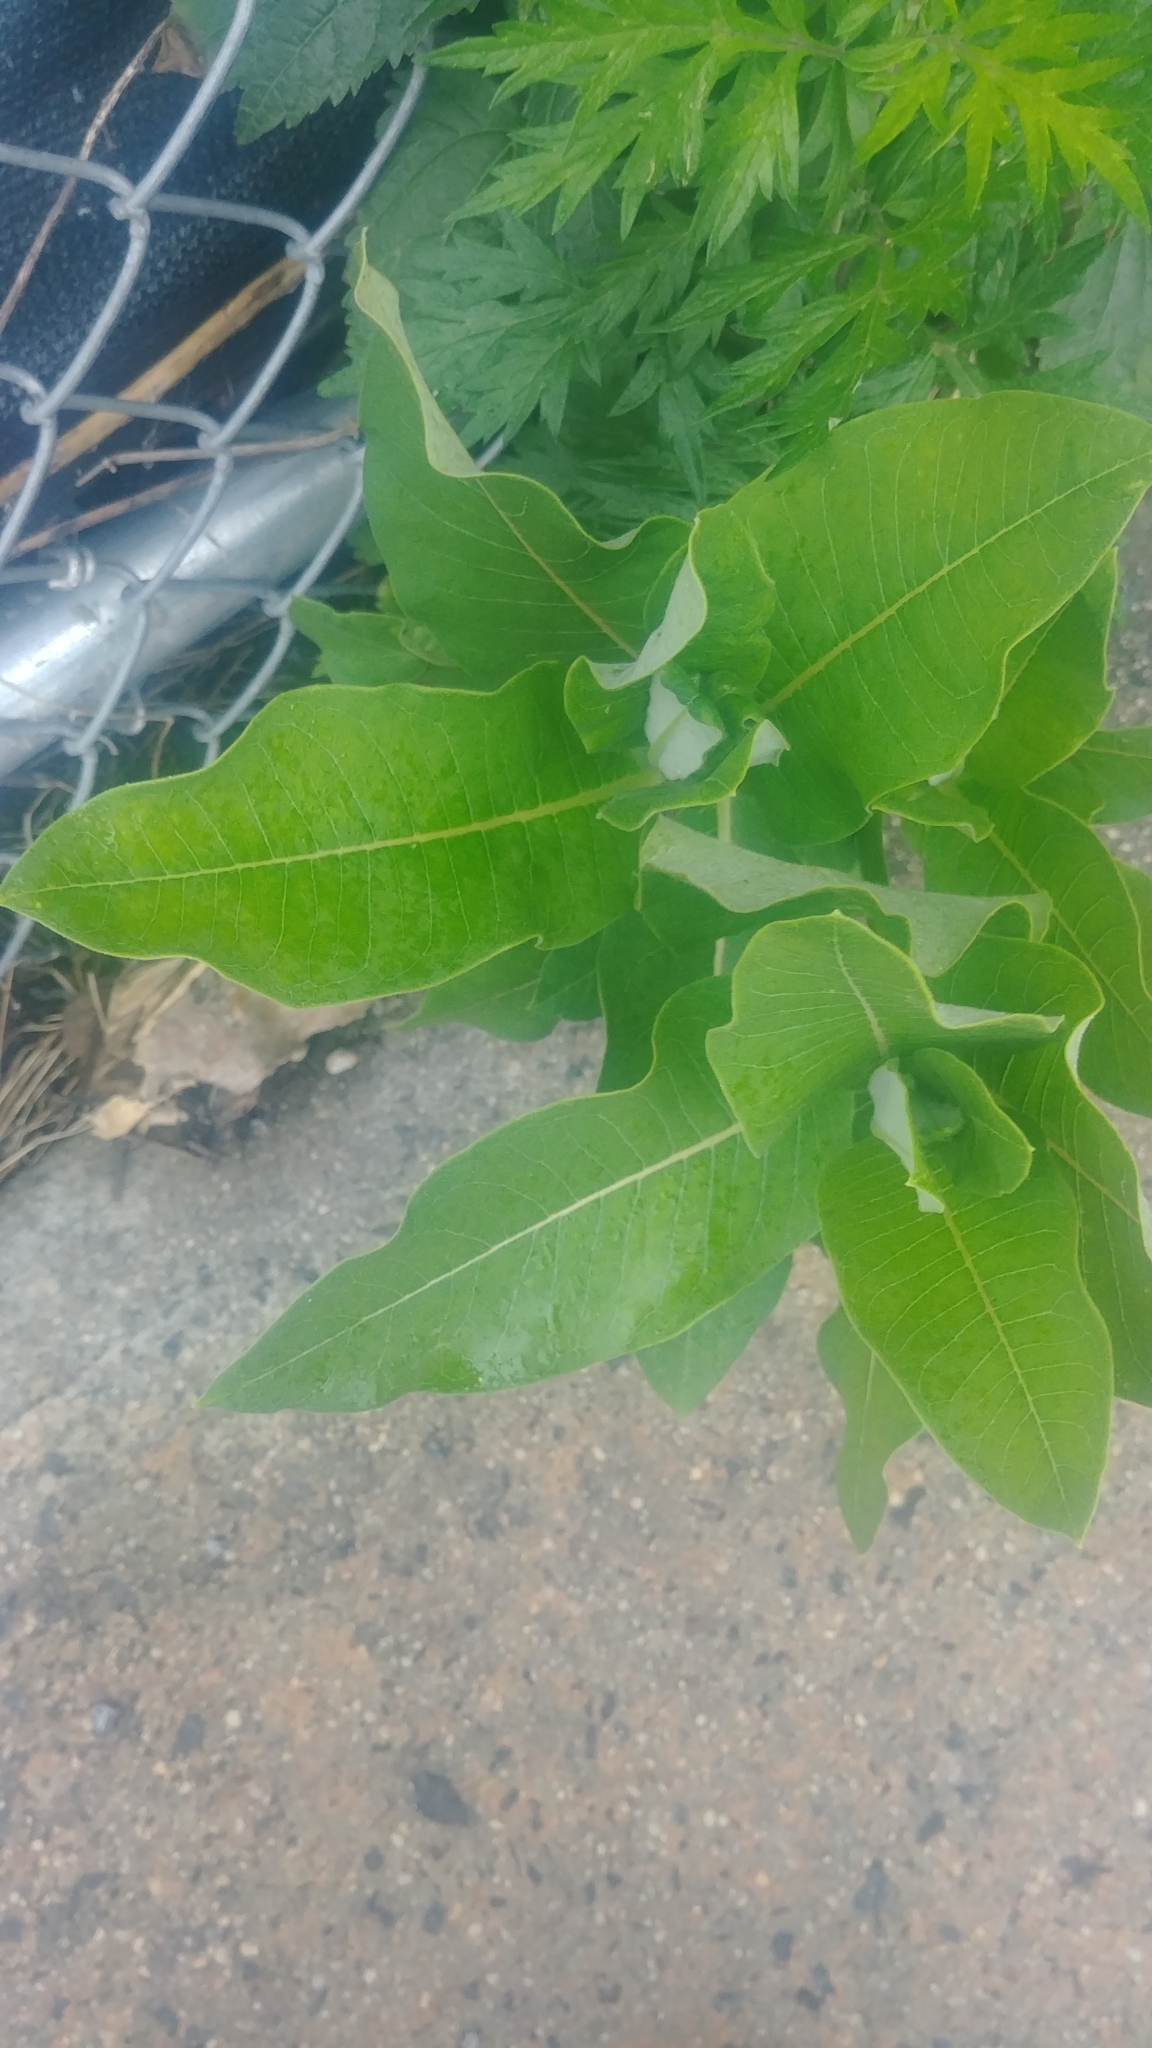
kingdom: Plantae
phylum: Tracheophyta
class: Magnoliopsida
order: Gentianales
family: Apocynaceae
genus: Asclepias
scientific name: Asclepias syriaca
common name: Common milkweed
